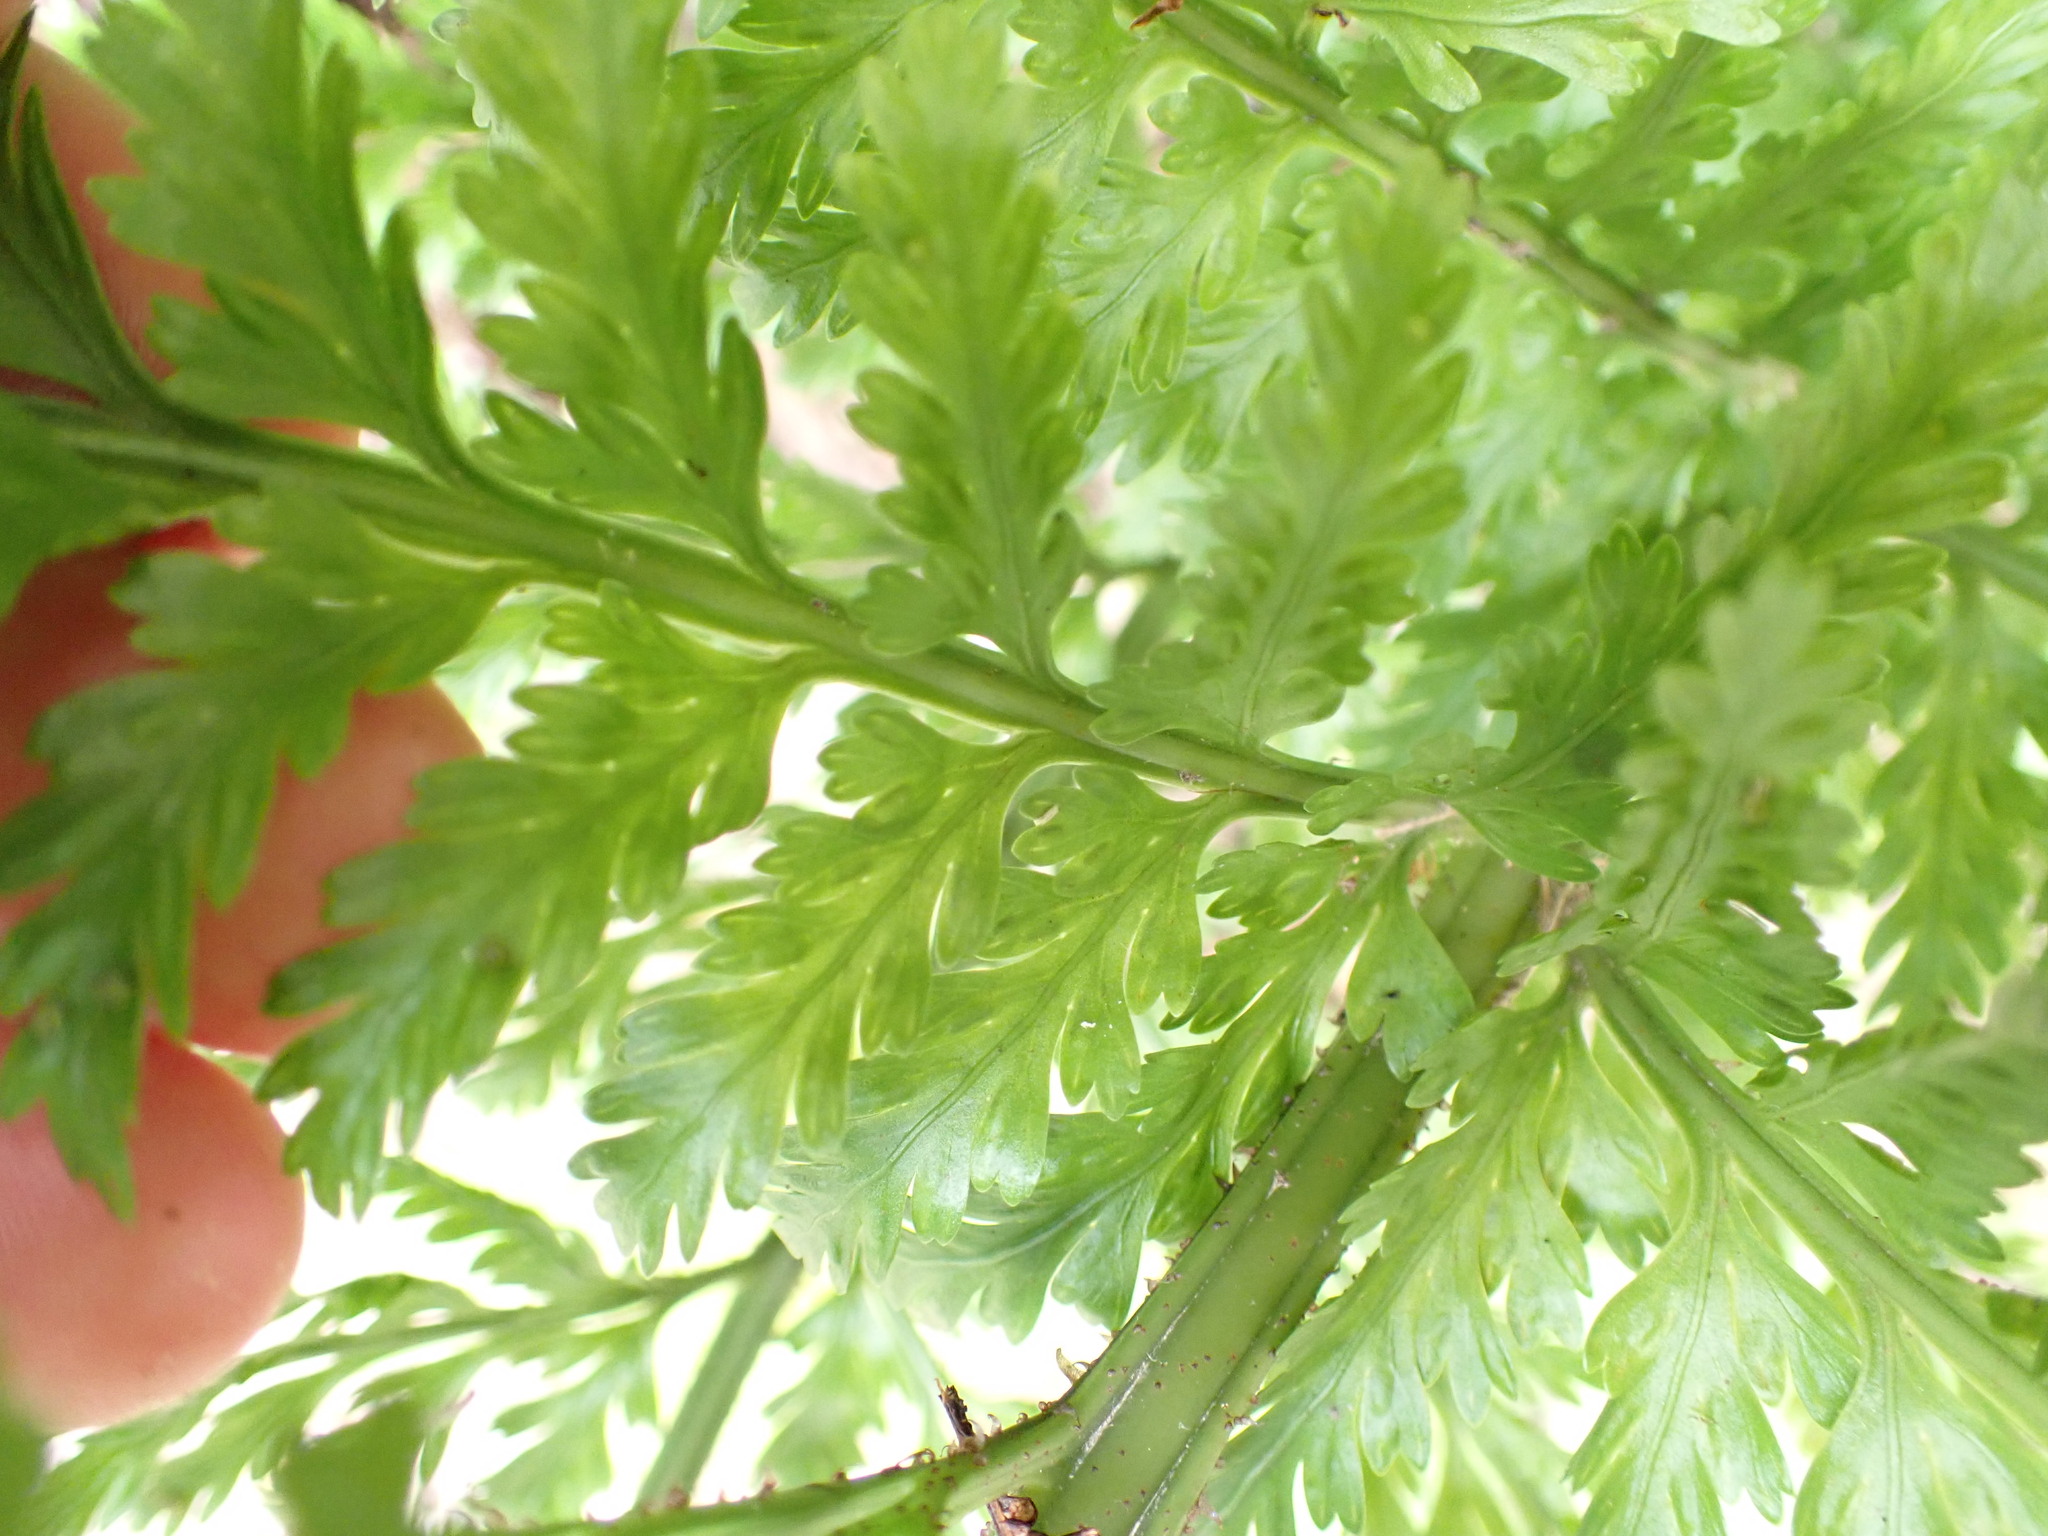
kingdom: Plantae
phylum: Tracheophyta
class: Polypodiopsida
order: Polypodiales
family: Aspleniaceae
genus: Asplenium
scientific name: Asplenium bulbiferum
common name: Mother fern
